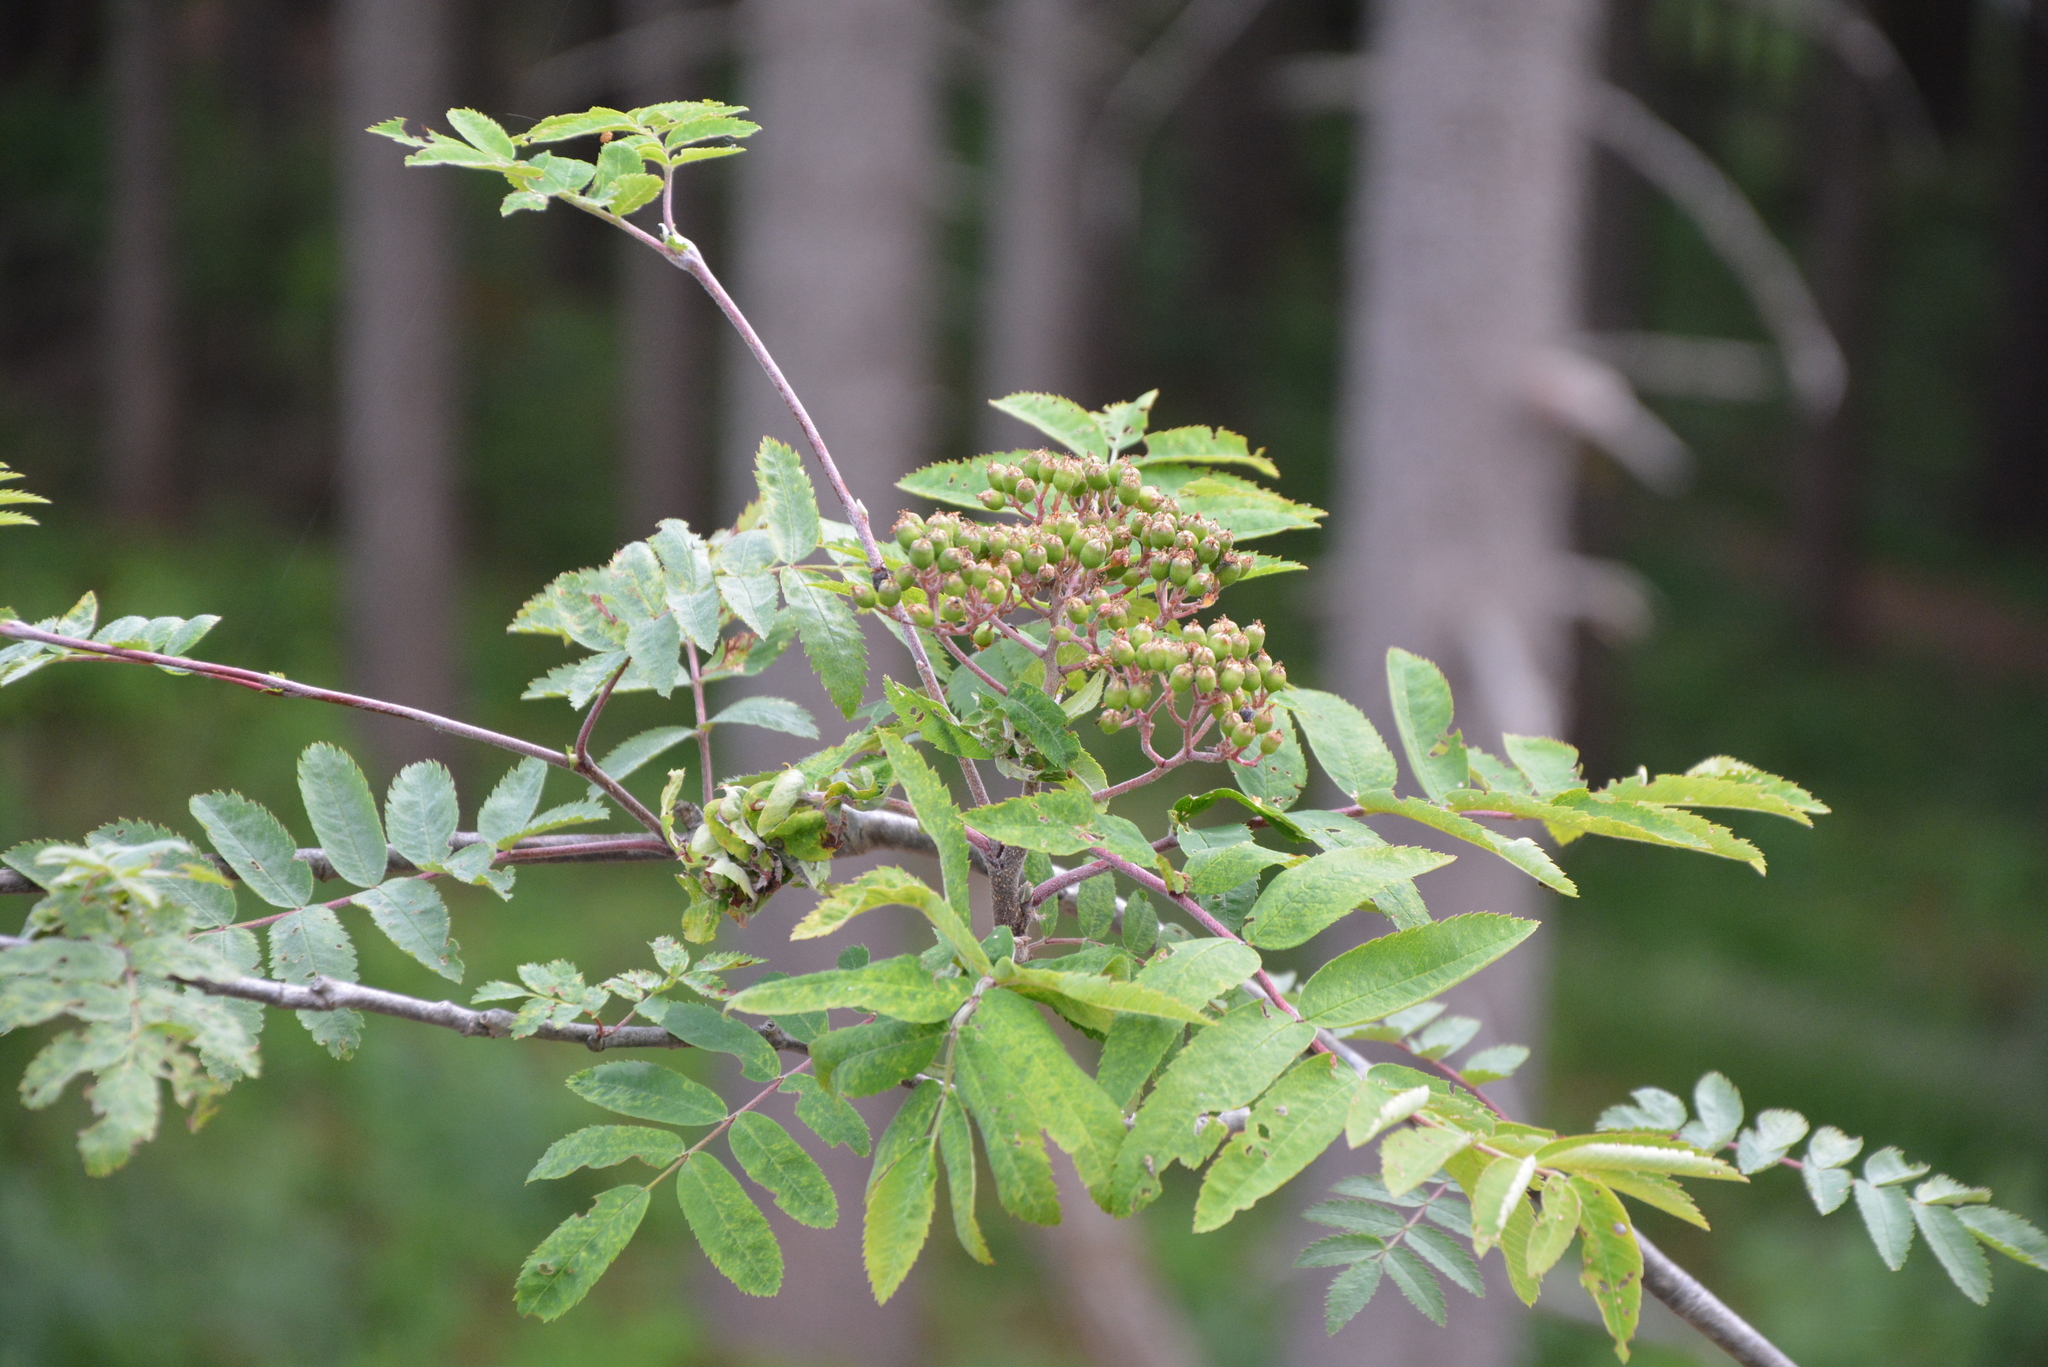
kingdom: Plantae
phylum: Tracheophyta
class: Magnoliopsida
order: Rosales
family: Rosaceae
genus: Sorbus
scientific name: Sorbus aucuparia
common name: Rowan
